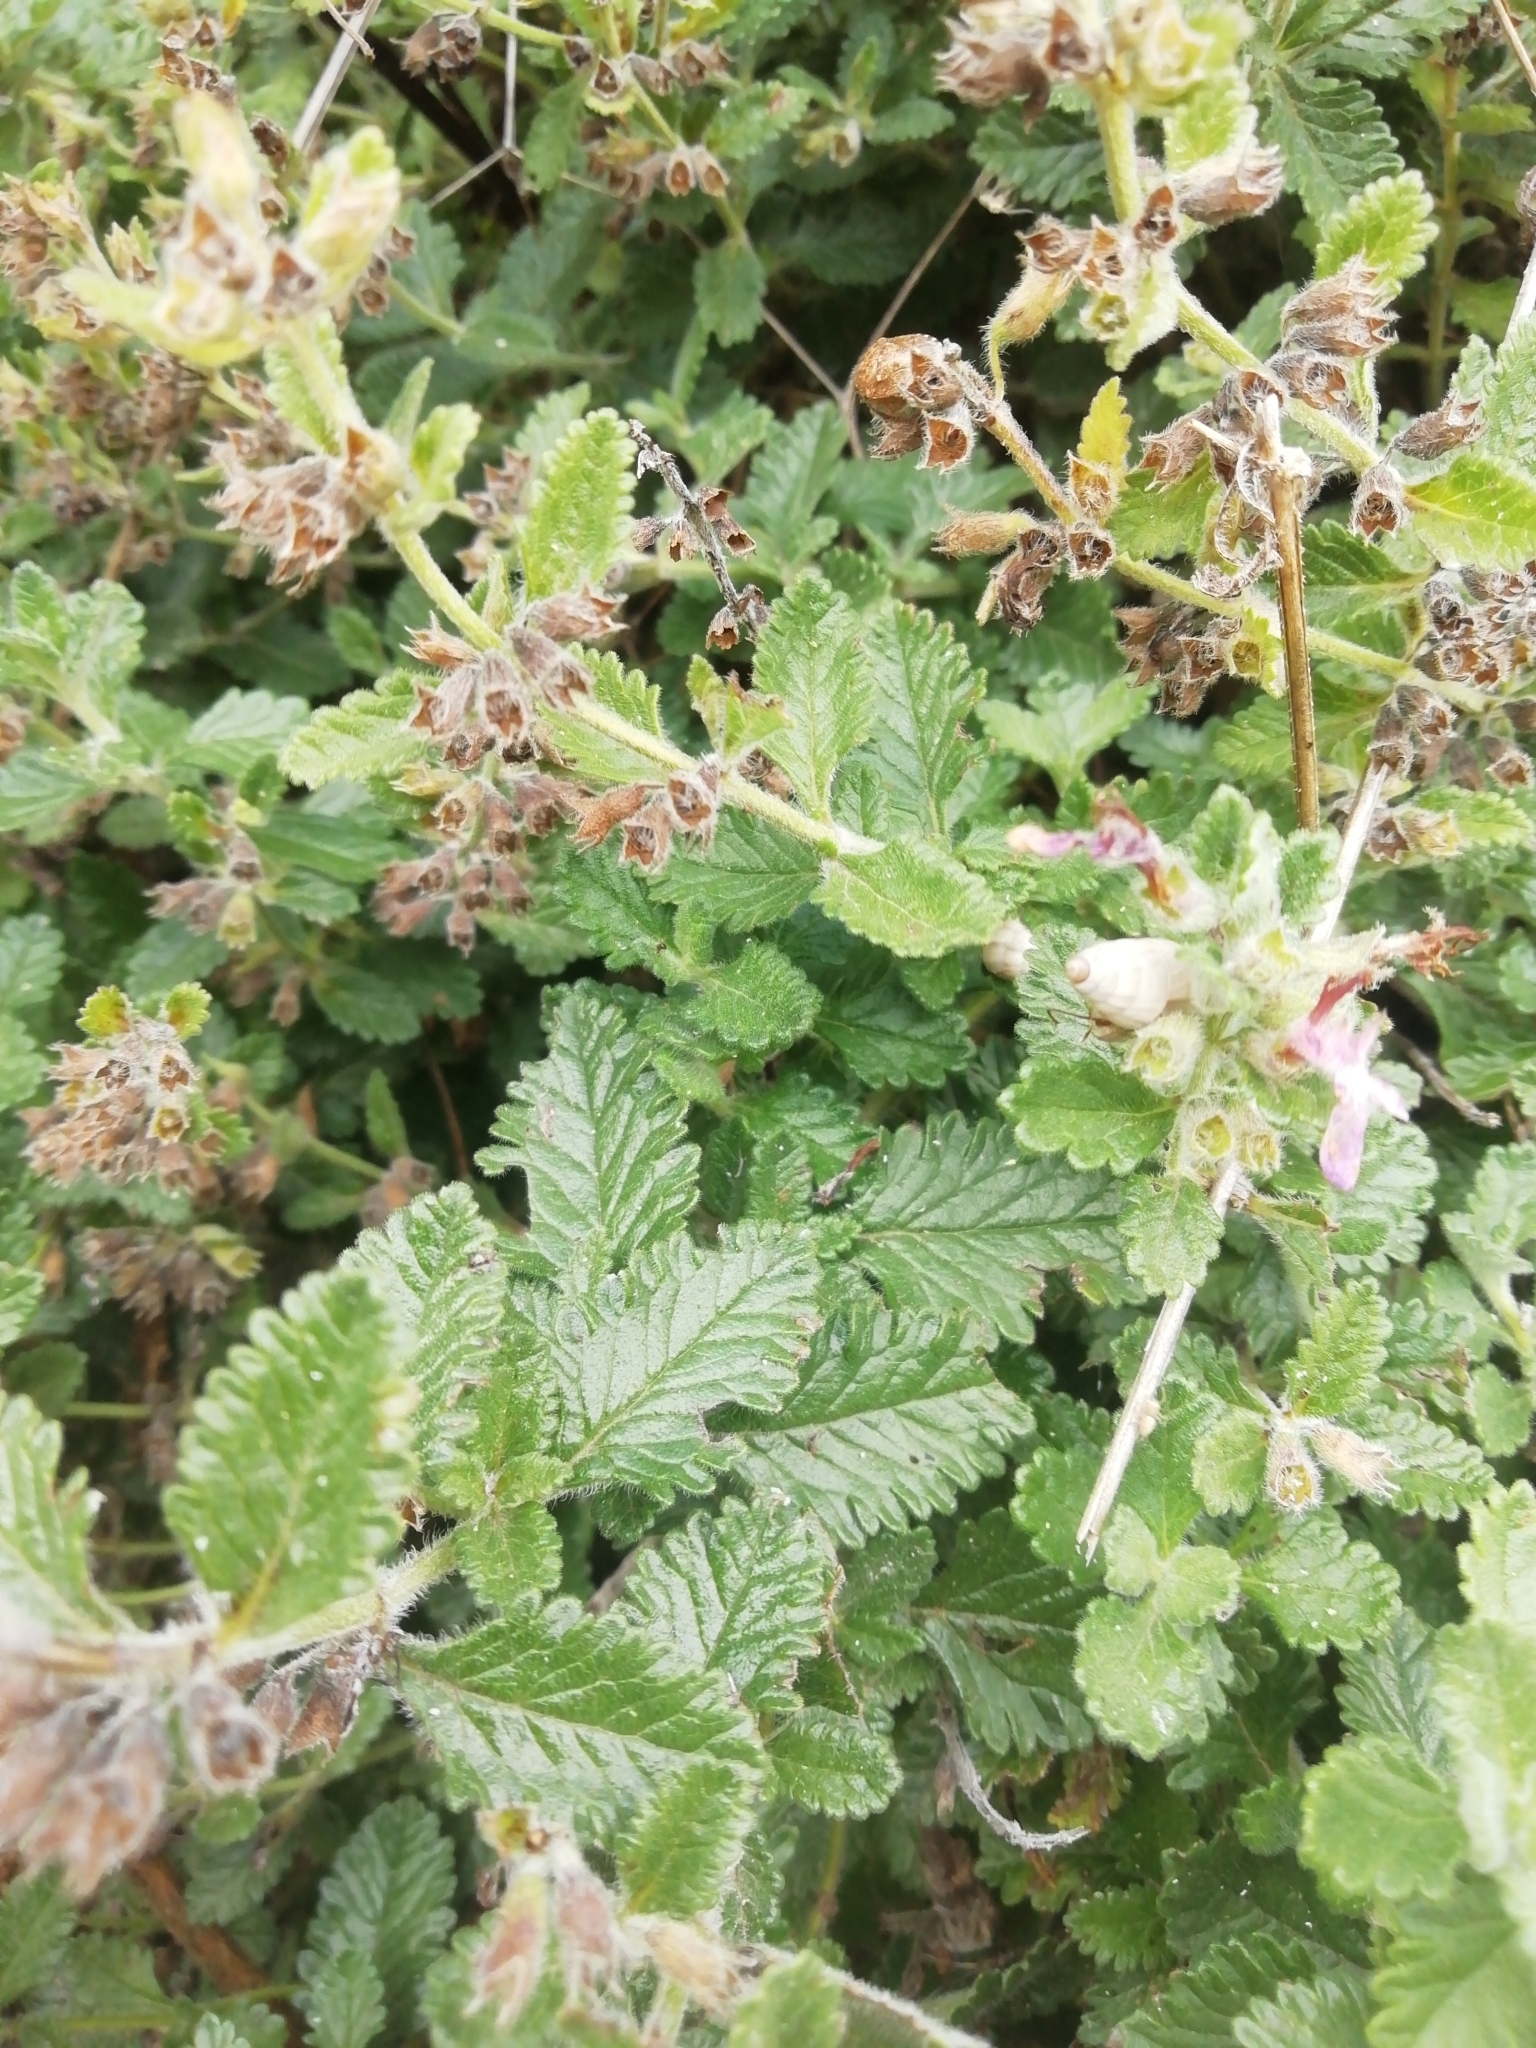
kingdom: Plantae
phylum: Tracheophyta
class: Magnoliopsida
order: Lamiales
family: Lamiaceae
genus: Teucrium
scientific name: Teucrium chamaedrys
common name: Wall germander
